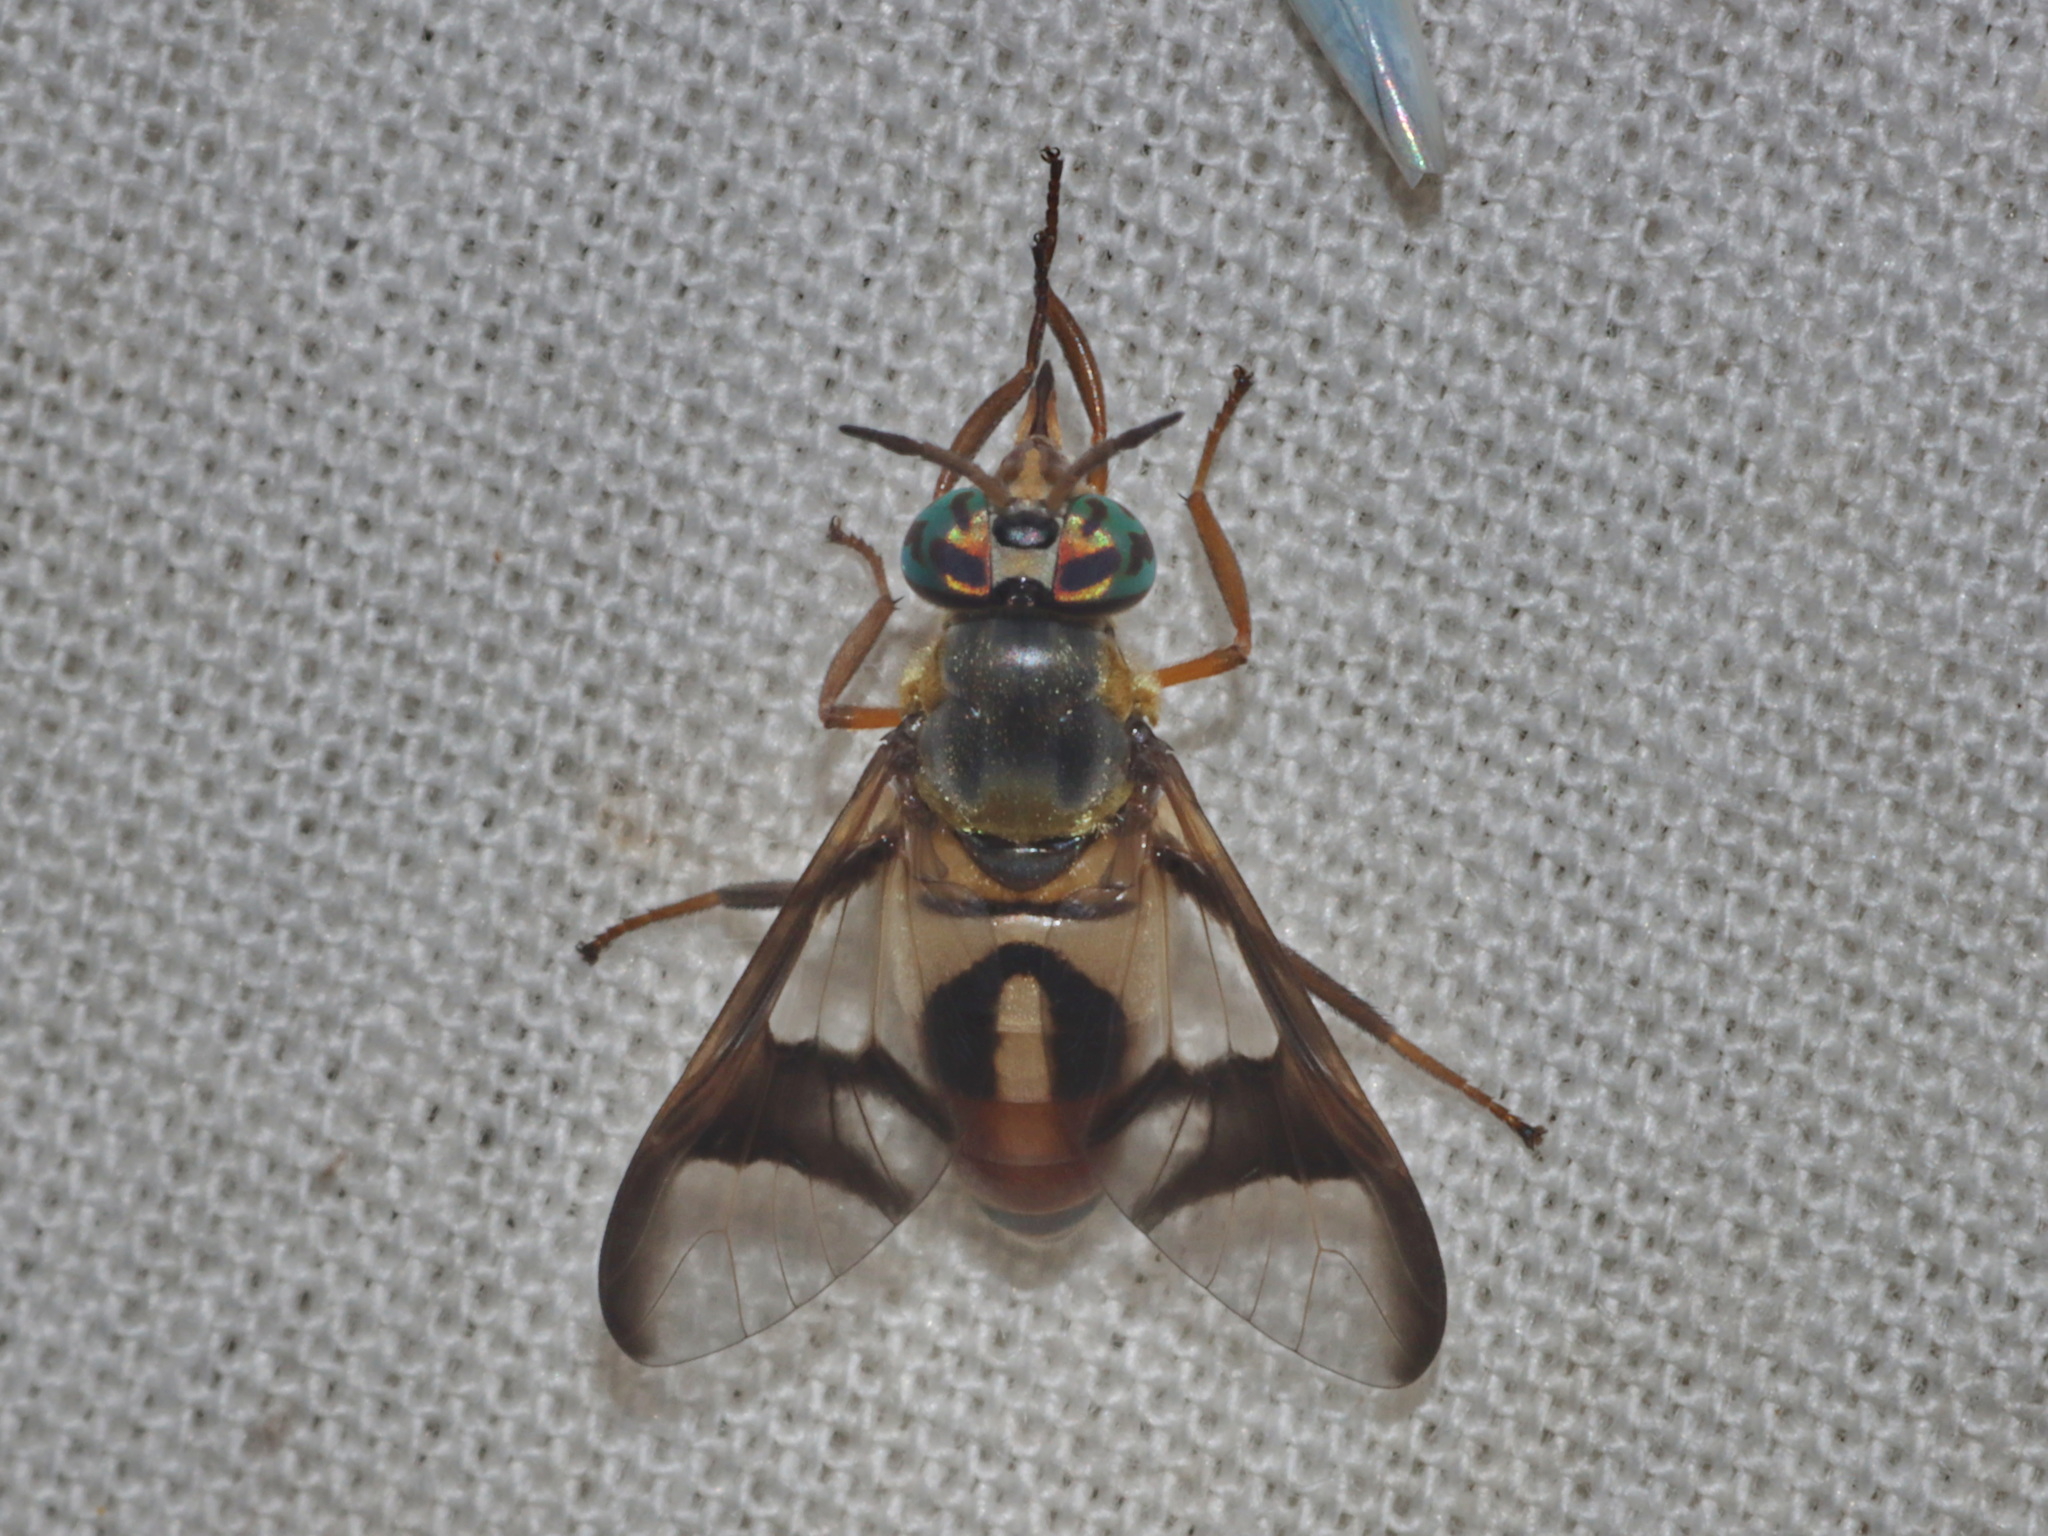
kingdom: Animalia
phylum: Arthropoda
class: Insecta
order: Diptera
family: Tabanidae
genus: Chrysops
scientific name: Chrysops dispar
